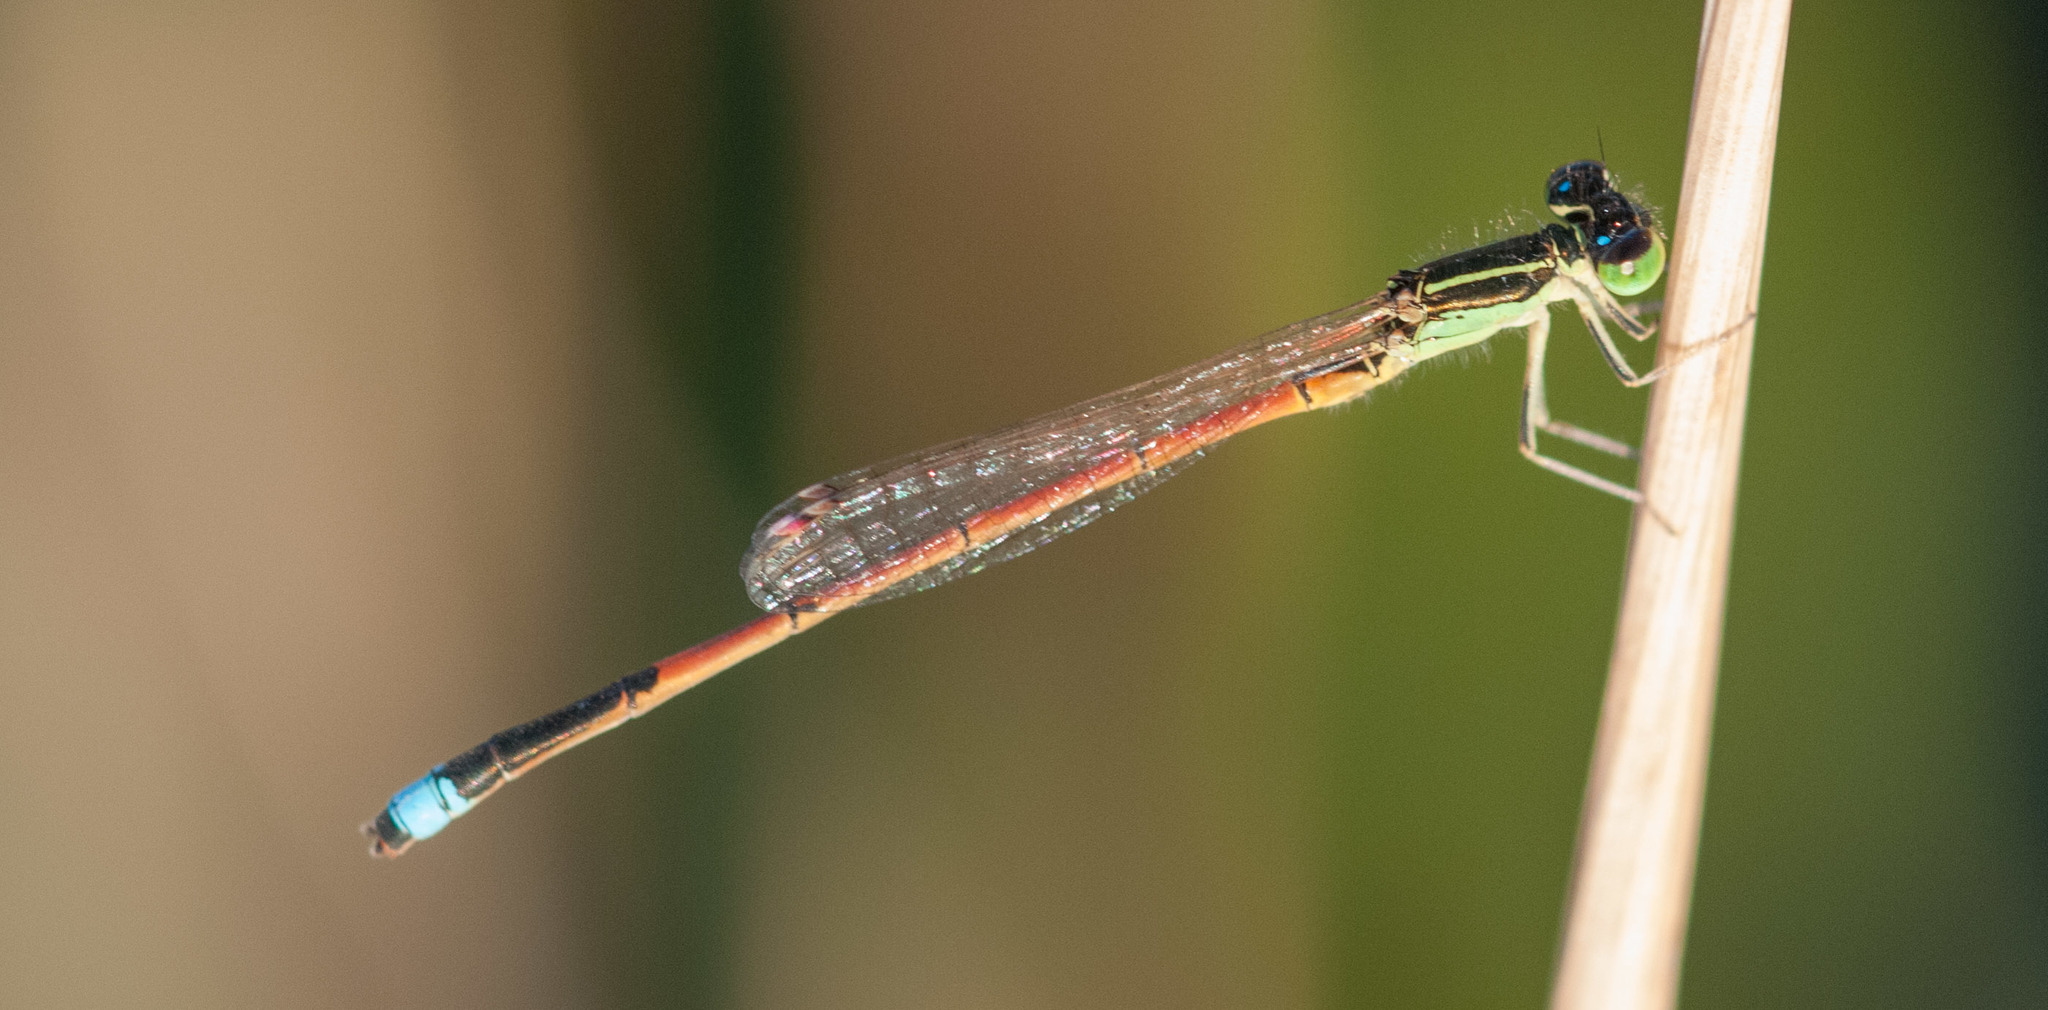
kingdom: Animalia
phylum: Arthropoda
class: Insecta
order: Odonata
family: Coenagrionidae
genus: Ischnura
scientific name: Ischnura aurora
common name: Gossamer damselfly
